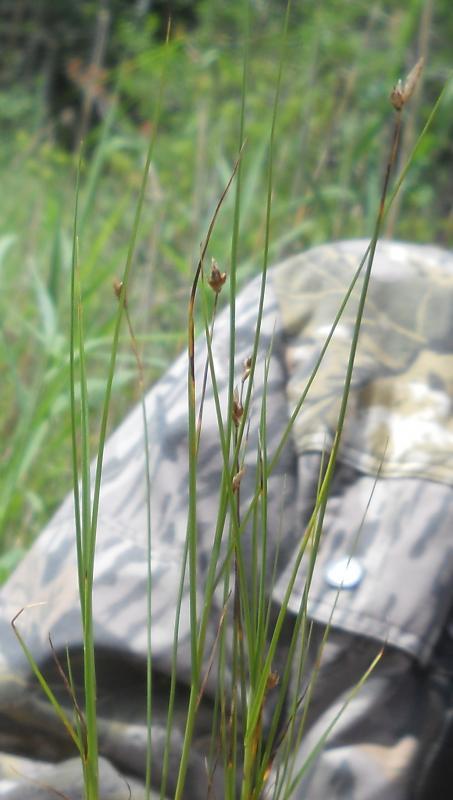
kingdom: Plantae
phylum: Tracheophyta
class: Liliopsida
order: Poales
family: Cyperaceae
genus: Carex
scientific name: Carex chordorrhiza
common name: String sedge
